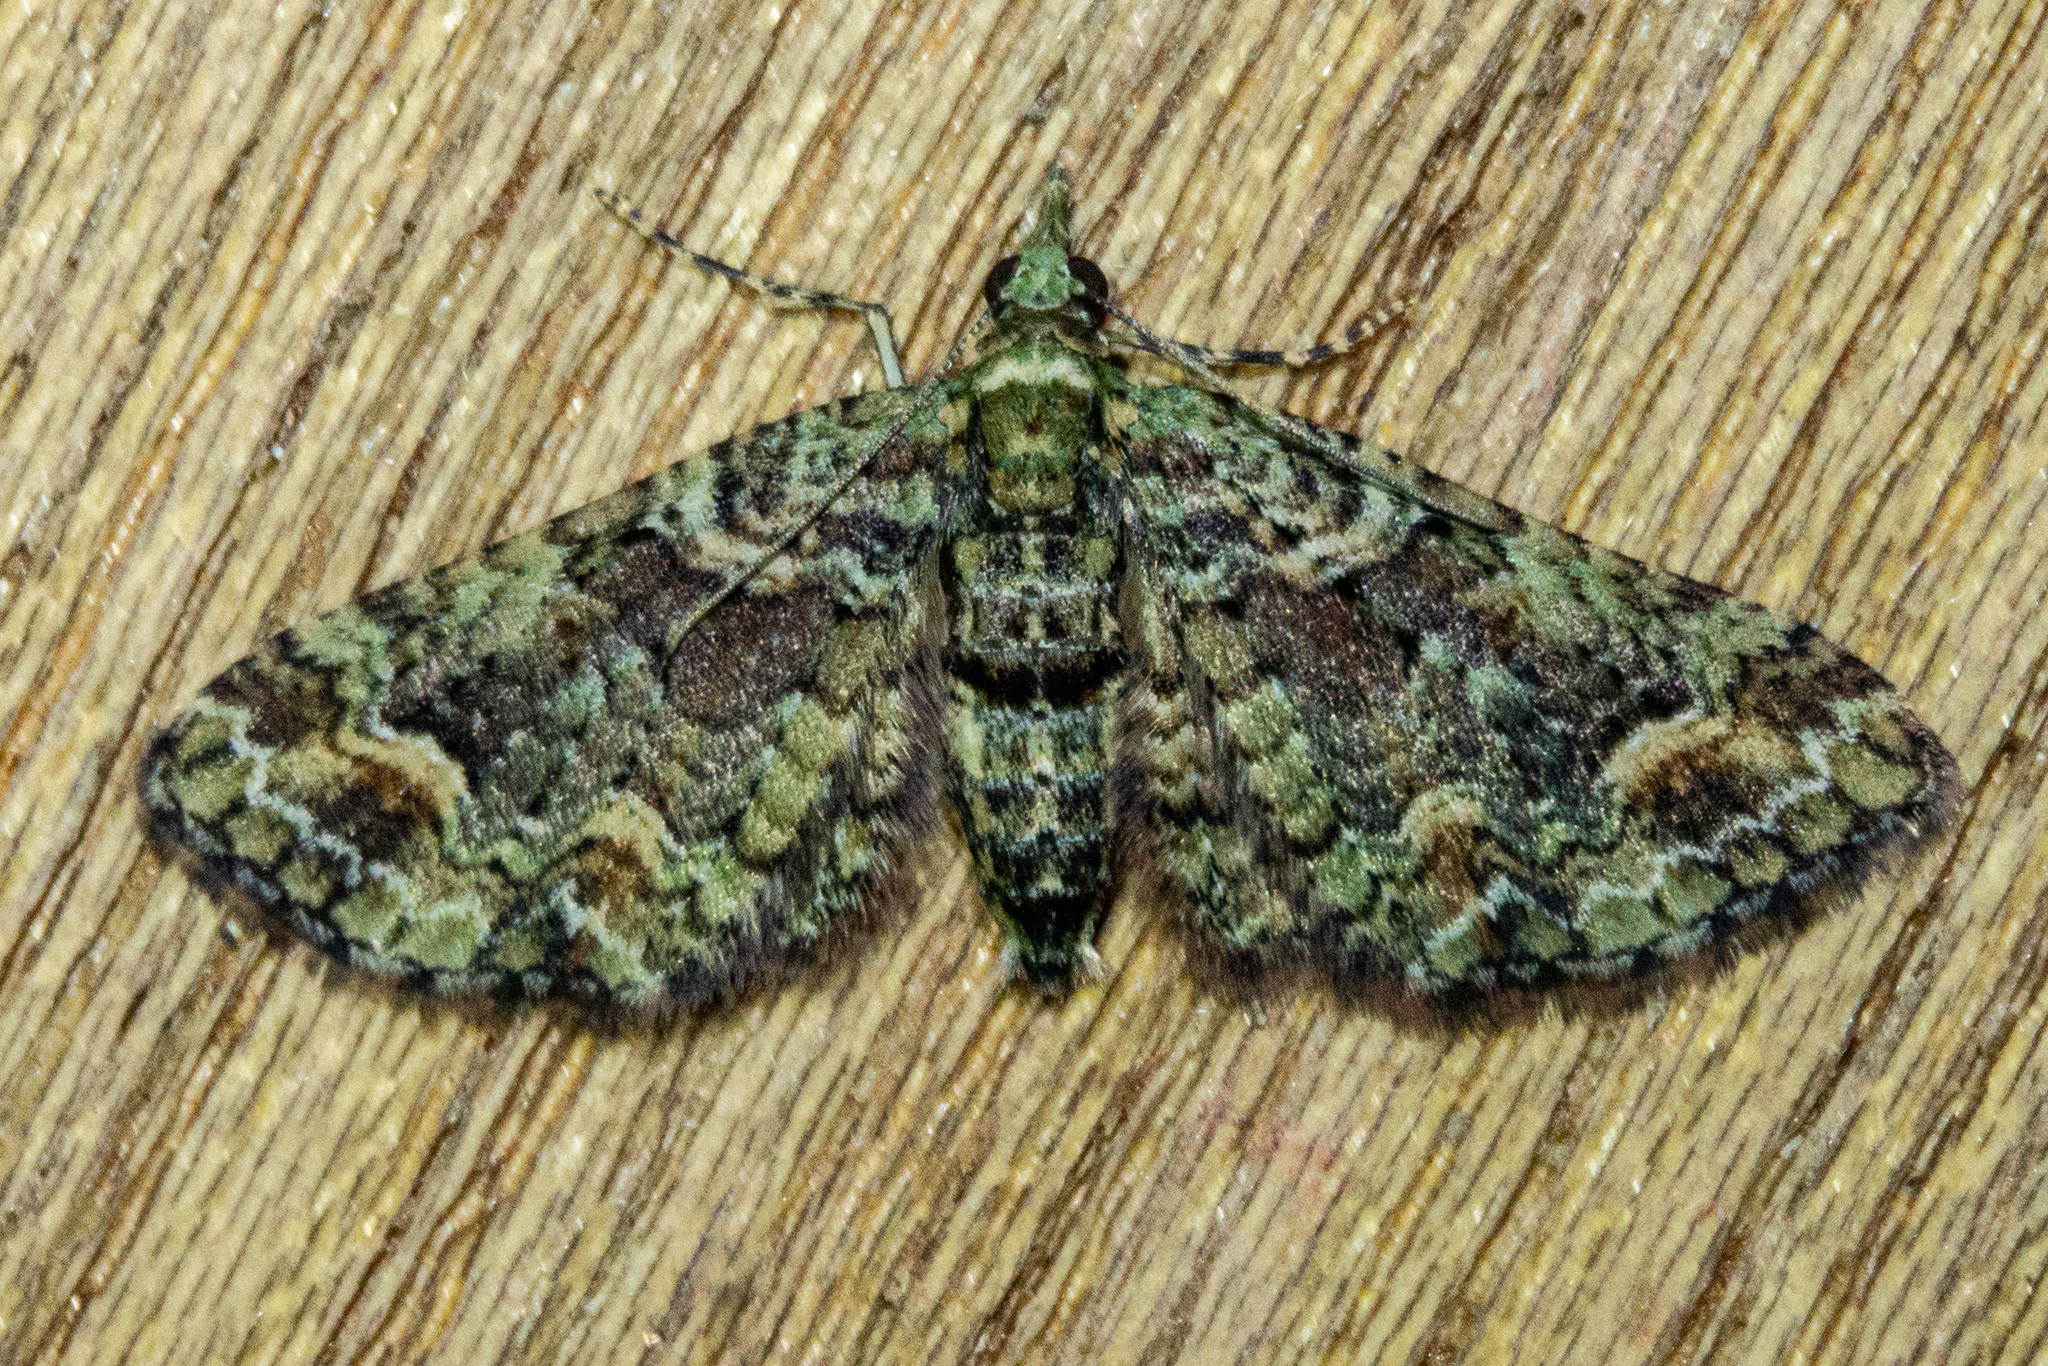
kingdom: Animalia
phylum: Arthropoda
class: Insecta
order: Lepidoptera
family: Geometridae
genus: Idaea
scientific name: Idaea mutanda
